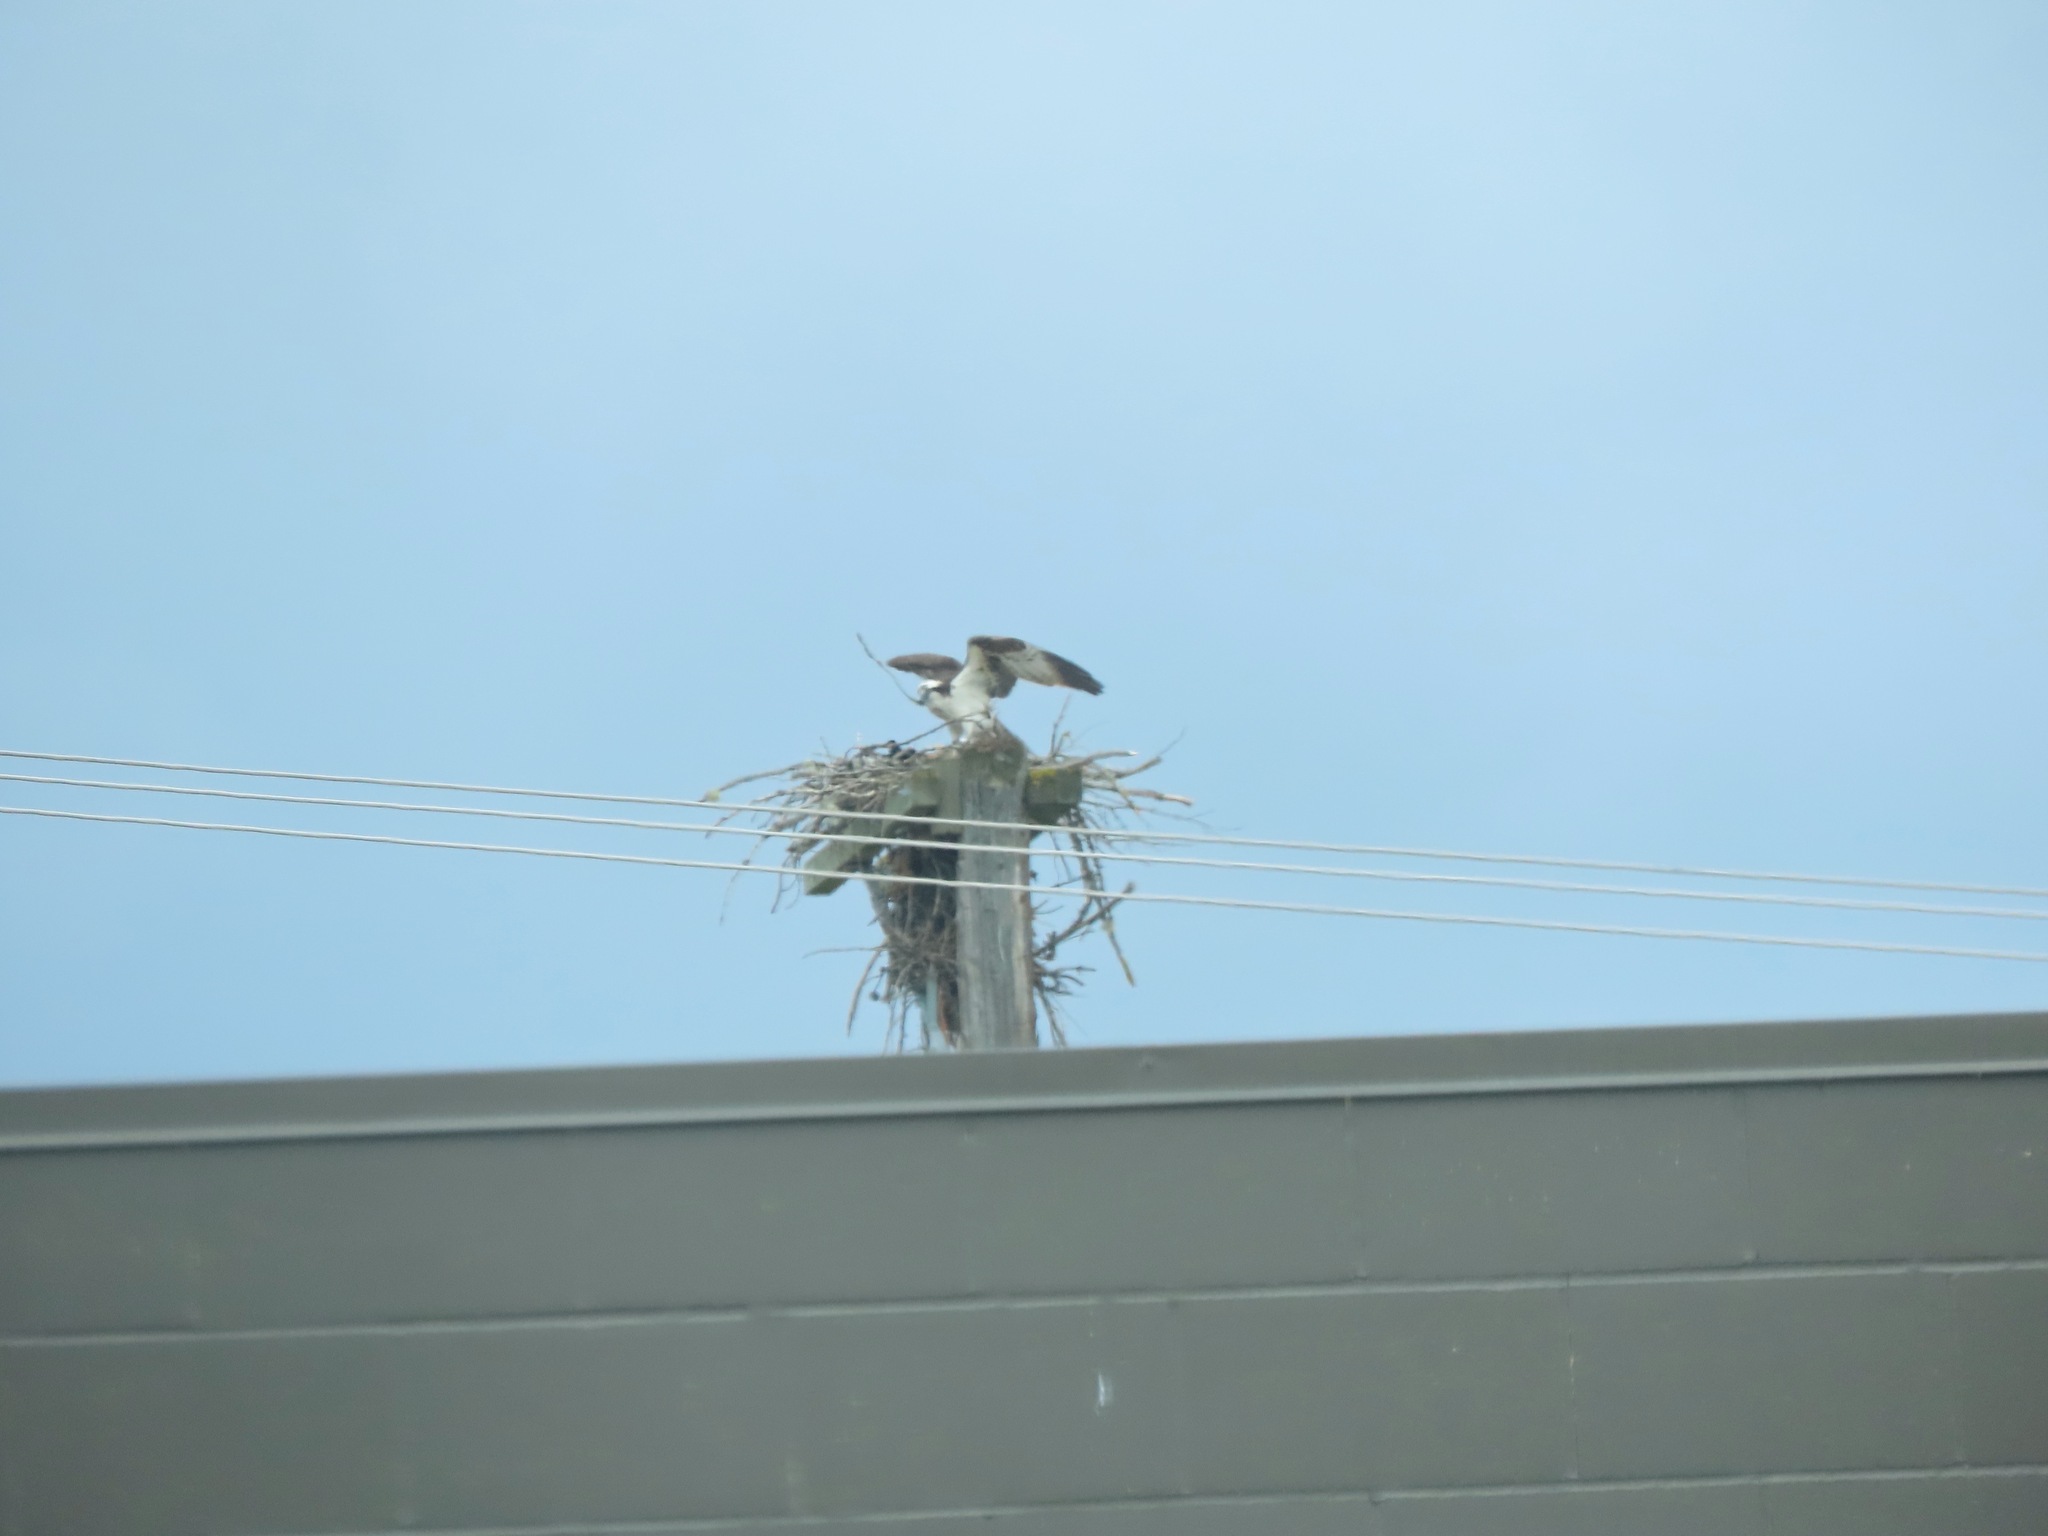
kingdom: Animalia
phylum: Chordata
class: Aves
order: Accipitriformes
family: Pandionidae
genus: Pandion
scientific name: Pandion haliaetus
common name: Osprey
